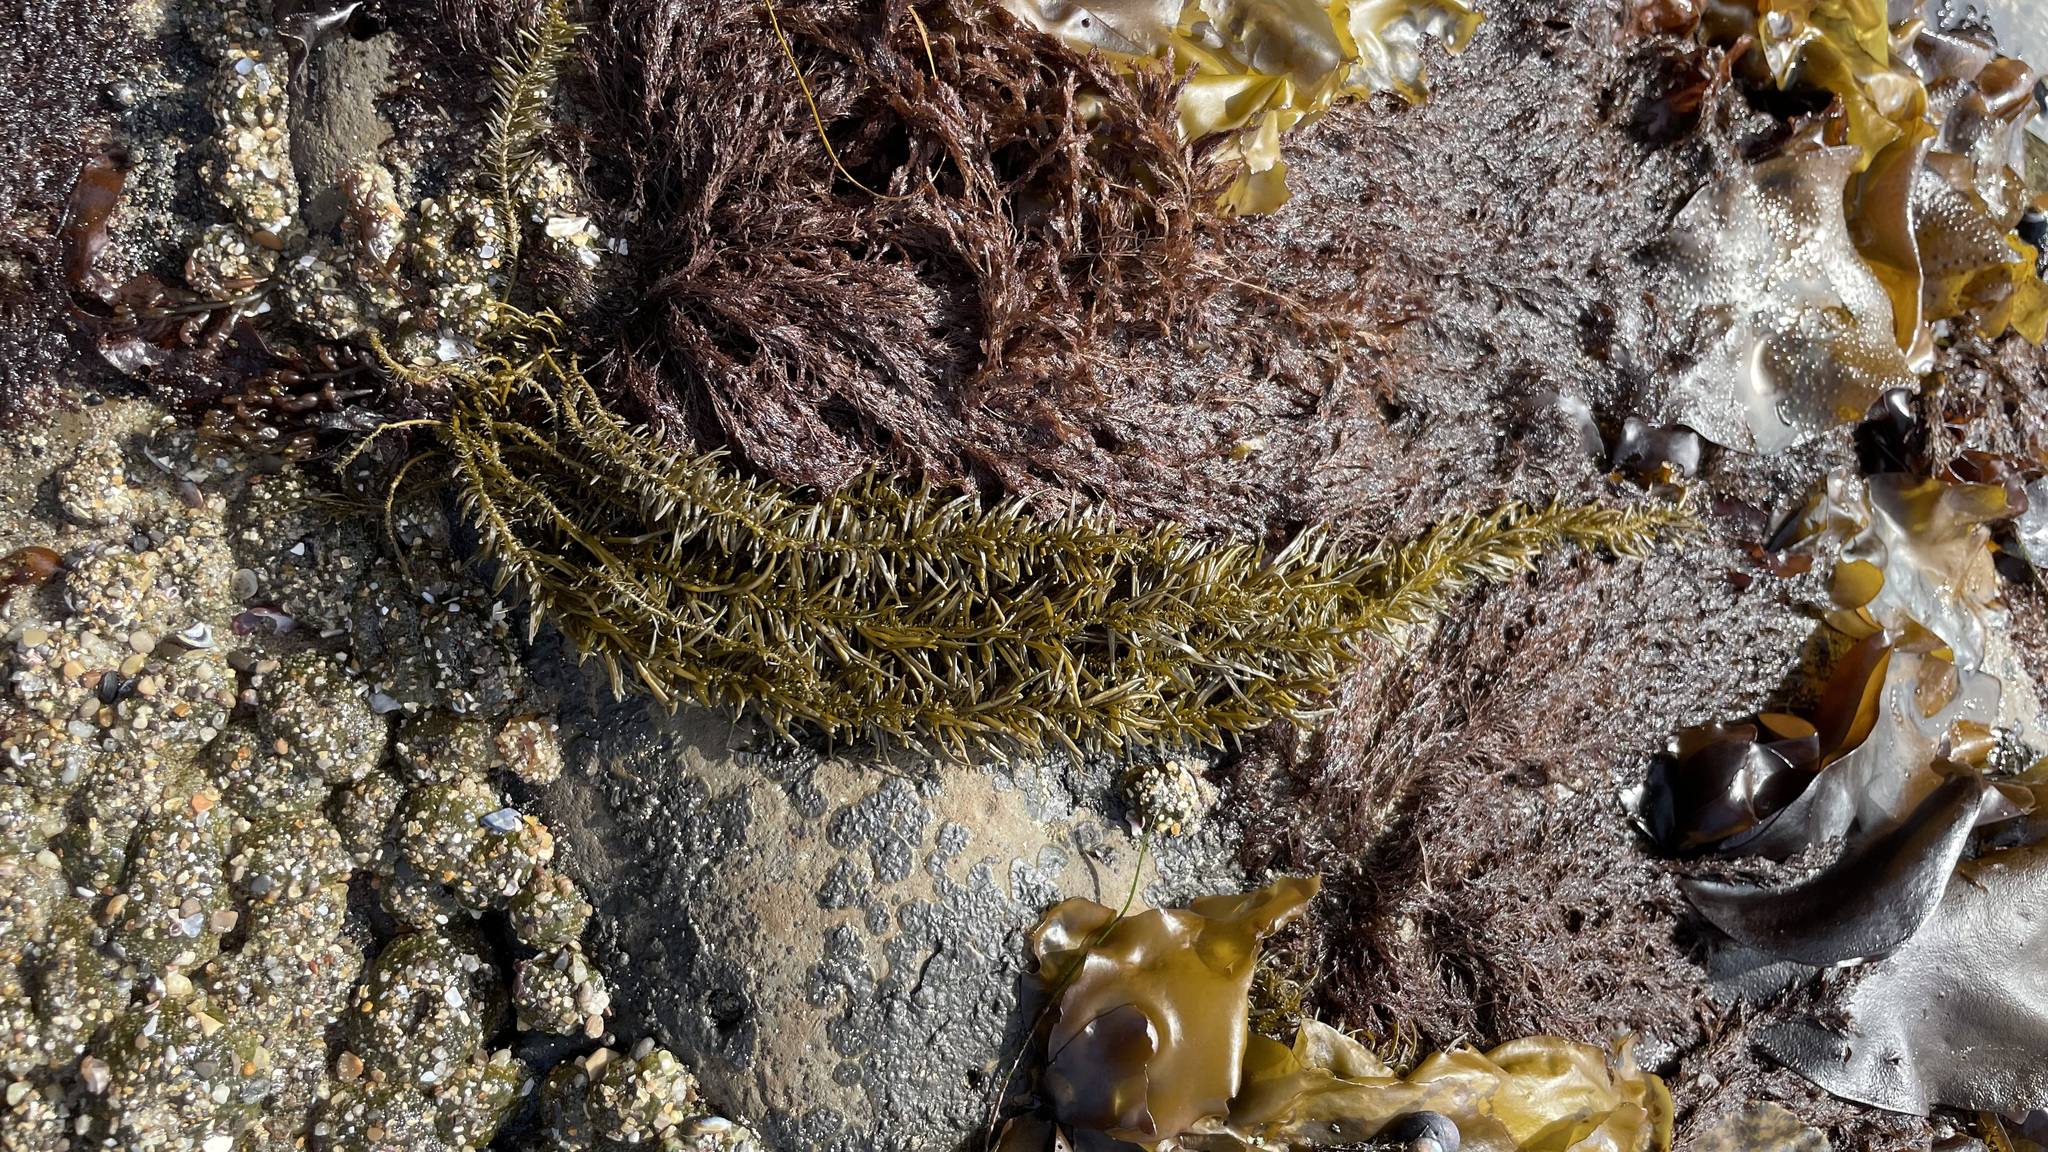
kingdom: Chromista
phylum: Ochrophyta
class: Phaeophyceae
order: Scytosiphonales
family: Scytosiphonaceae
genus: Analipus
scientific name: Analipus japonicus
